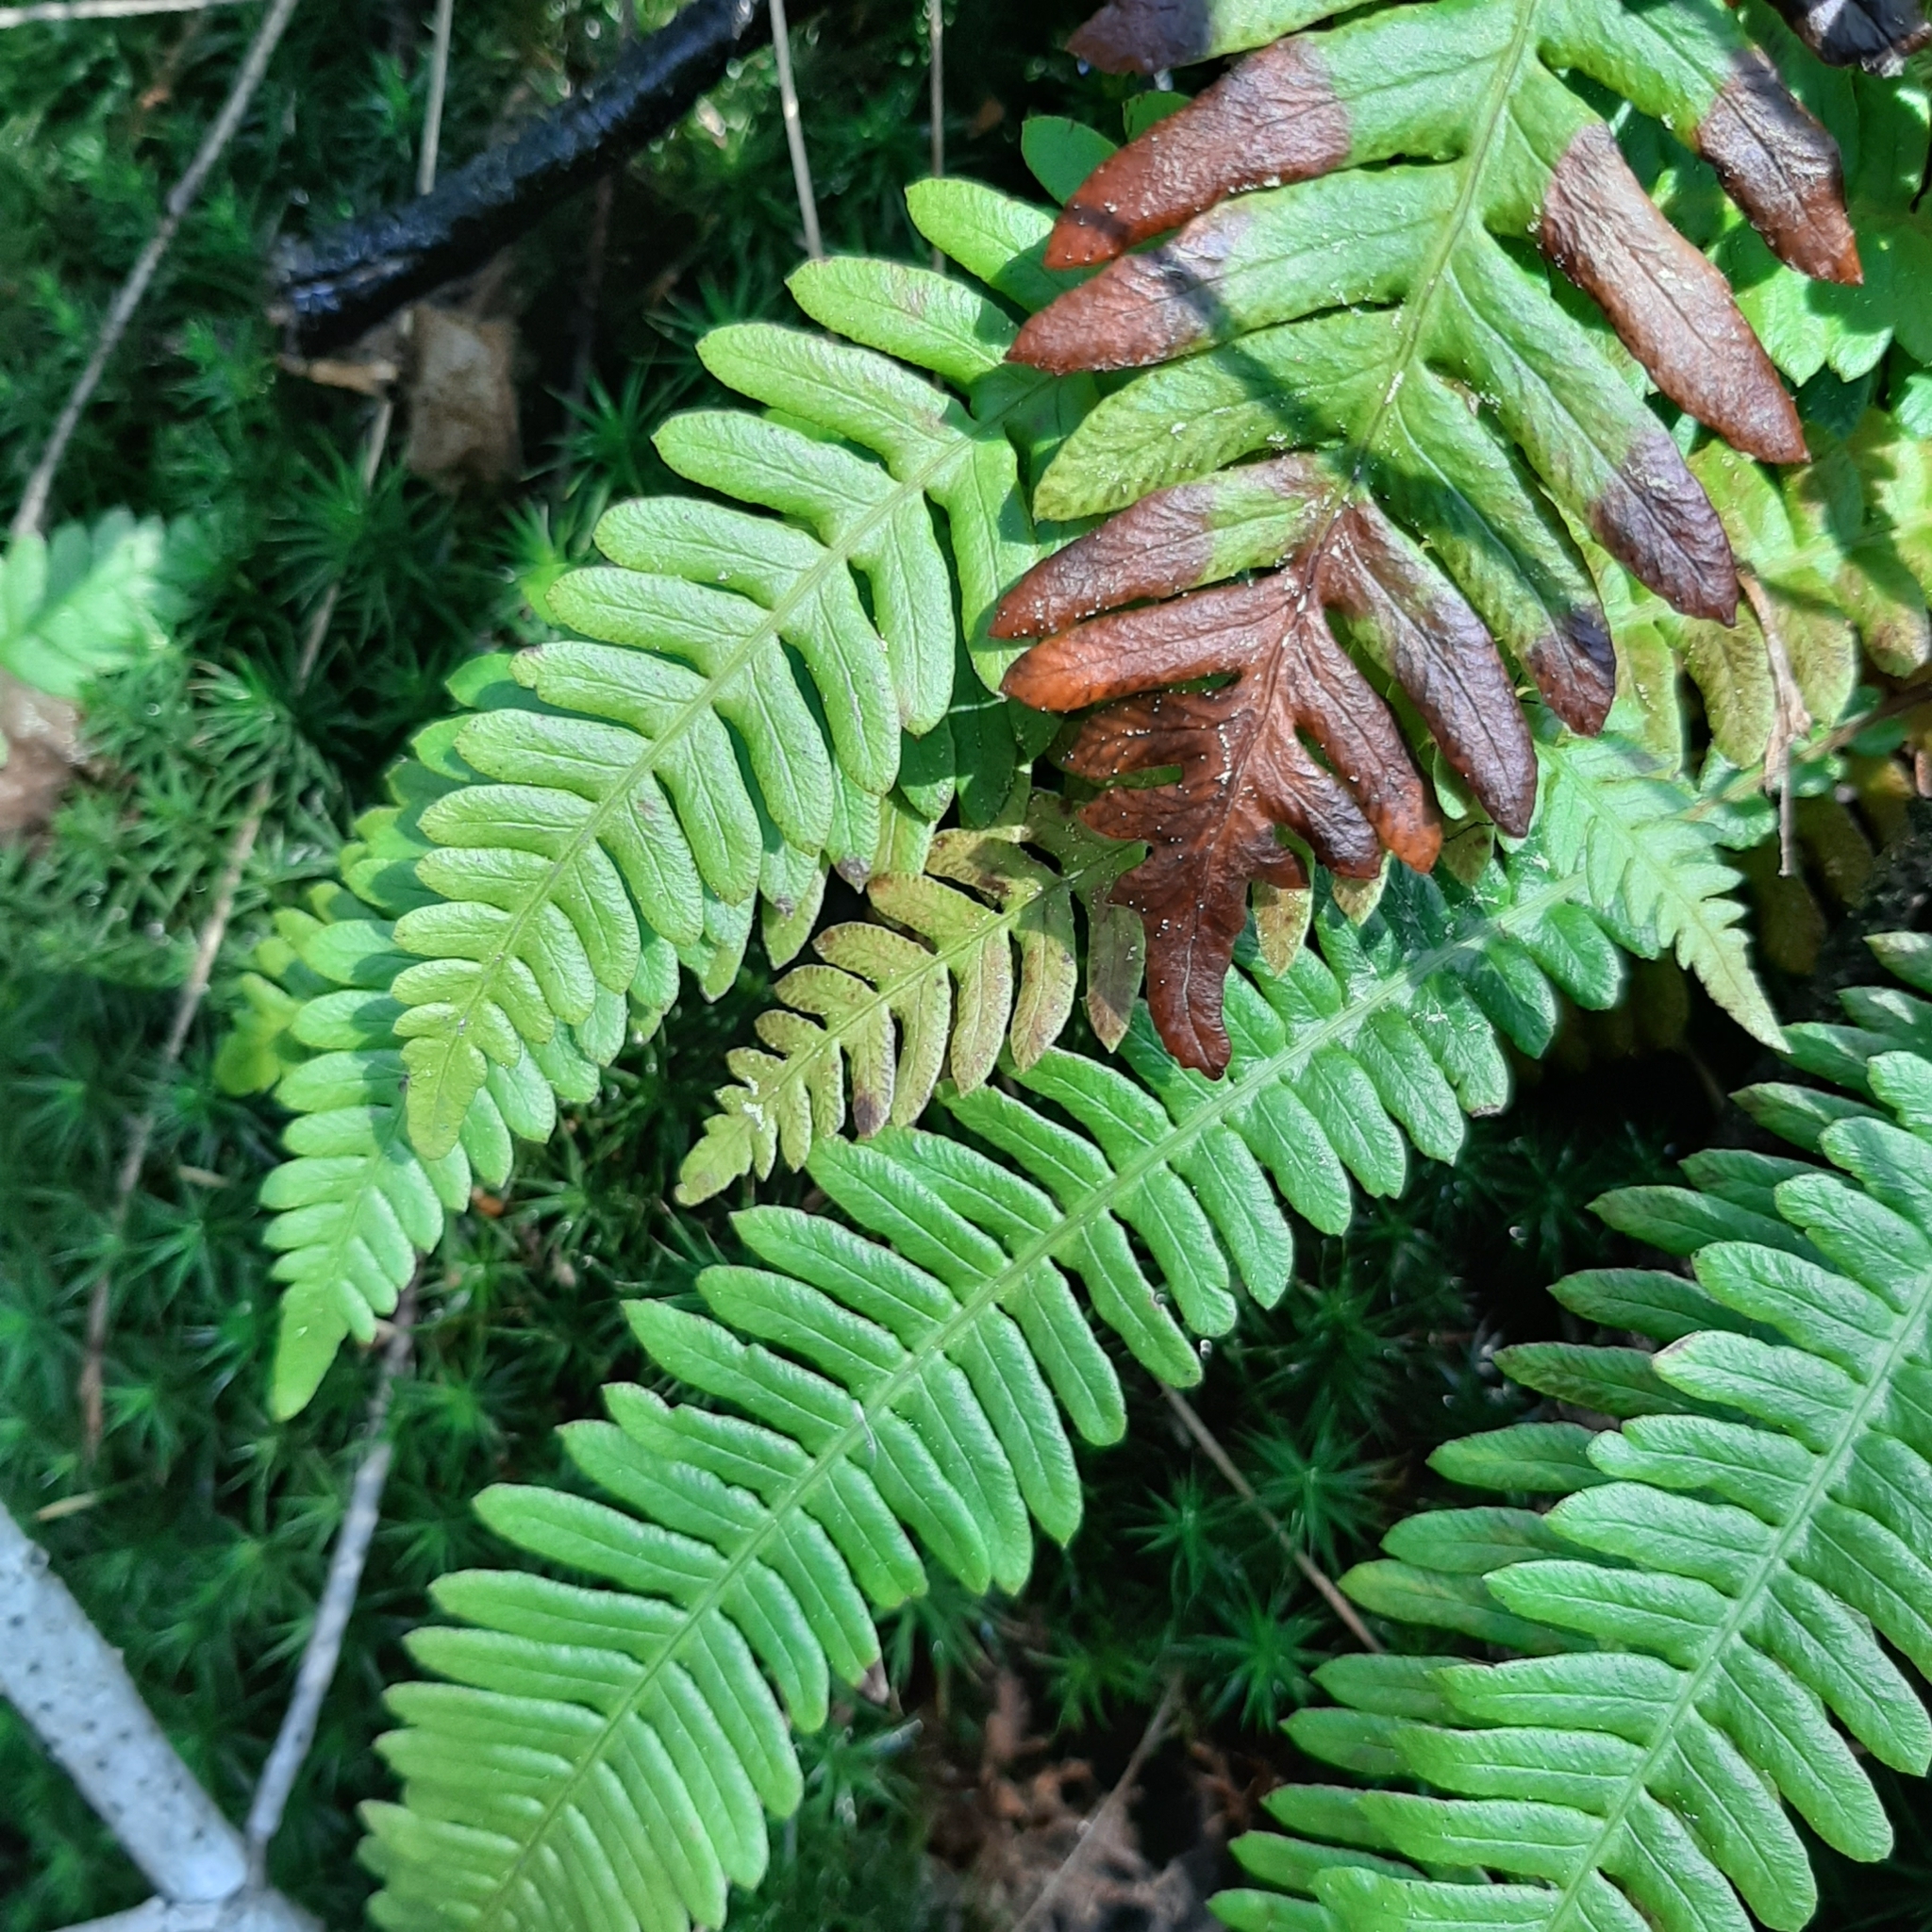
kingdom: Plantae
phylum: Tracheophyta
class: Polypodiopsida
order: Polypodiales
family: Blechnaceae
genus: Struthiopteris
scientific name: Struthiopteris spicant
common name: Deer fern
